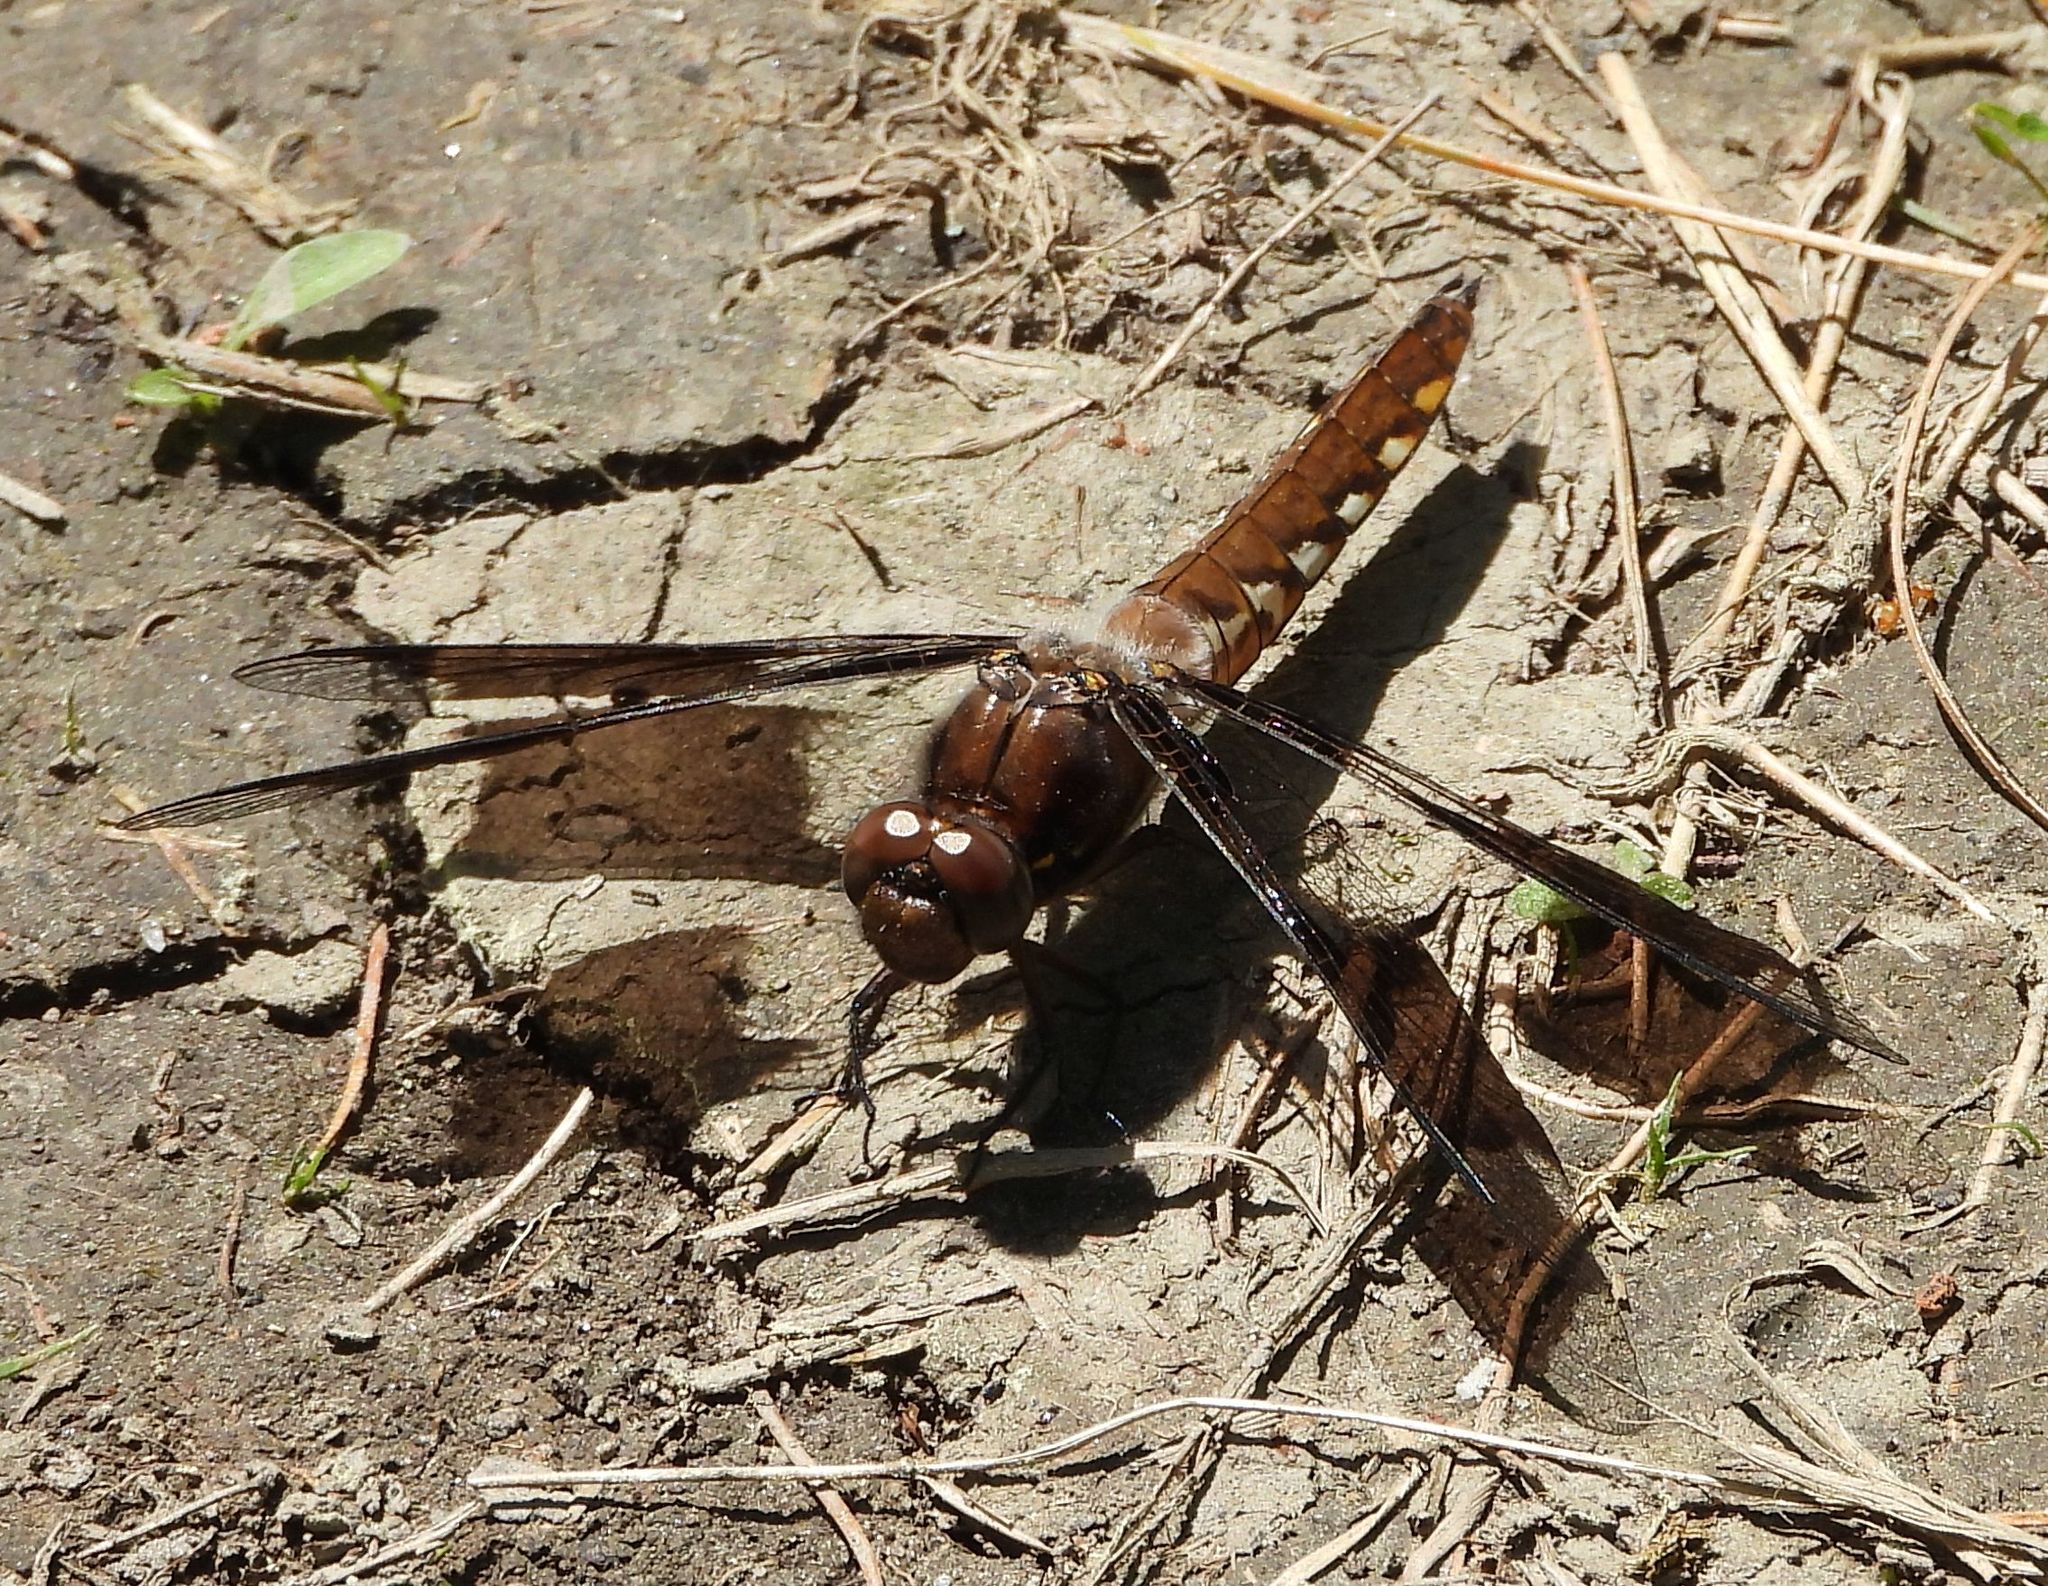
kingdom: Animalia
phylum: Arthropoda
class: Insecta
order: Odonata
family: Libellulidae
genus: Plathemis
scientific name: Plathemis lydia
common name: Common whitetail
